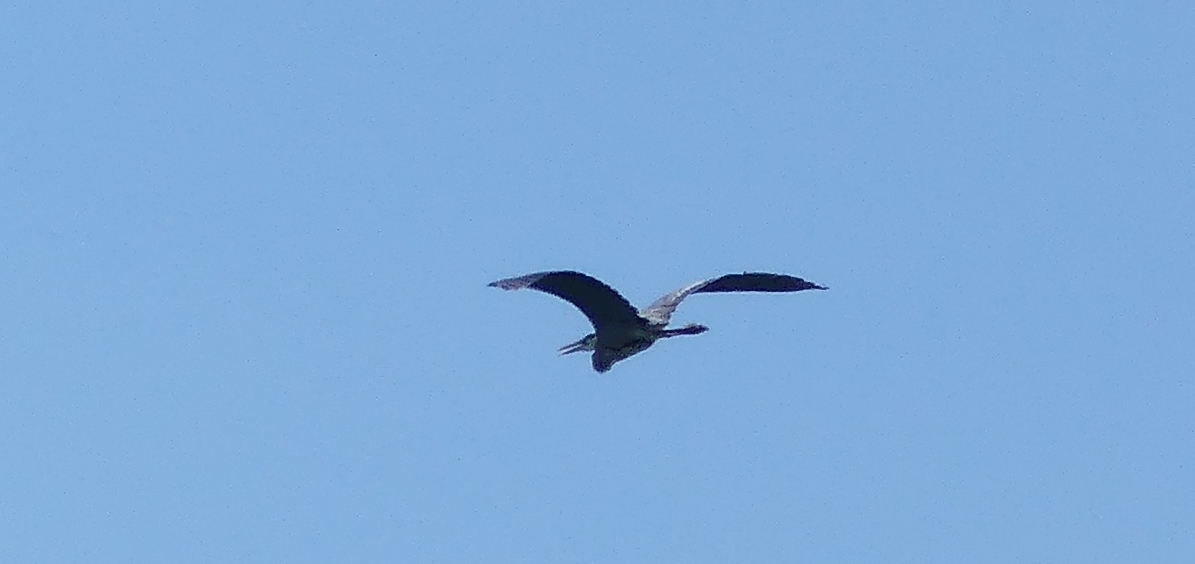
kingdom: Animalia
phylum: Chordata
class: Aves
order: Pelecaniformes
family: Ardeidae
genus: Ardea
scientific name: Ardea herodias
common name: Great blue heron
